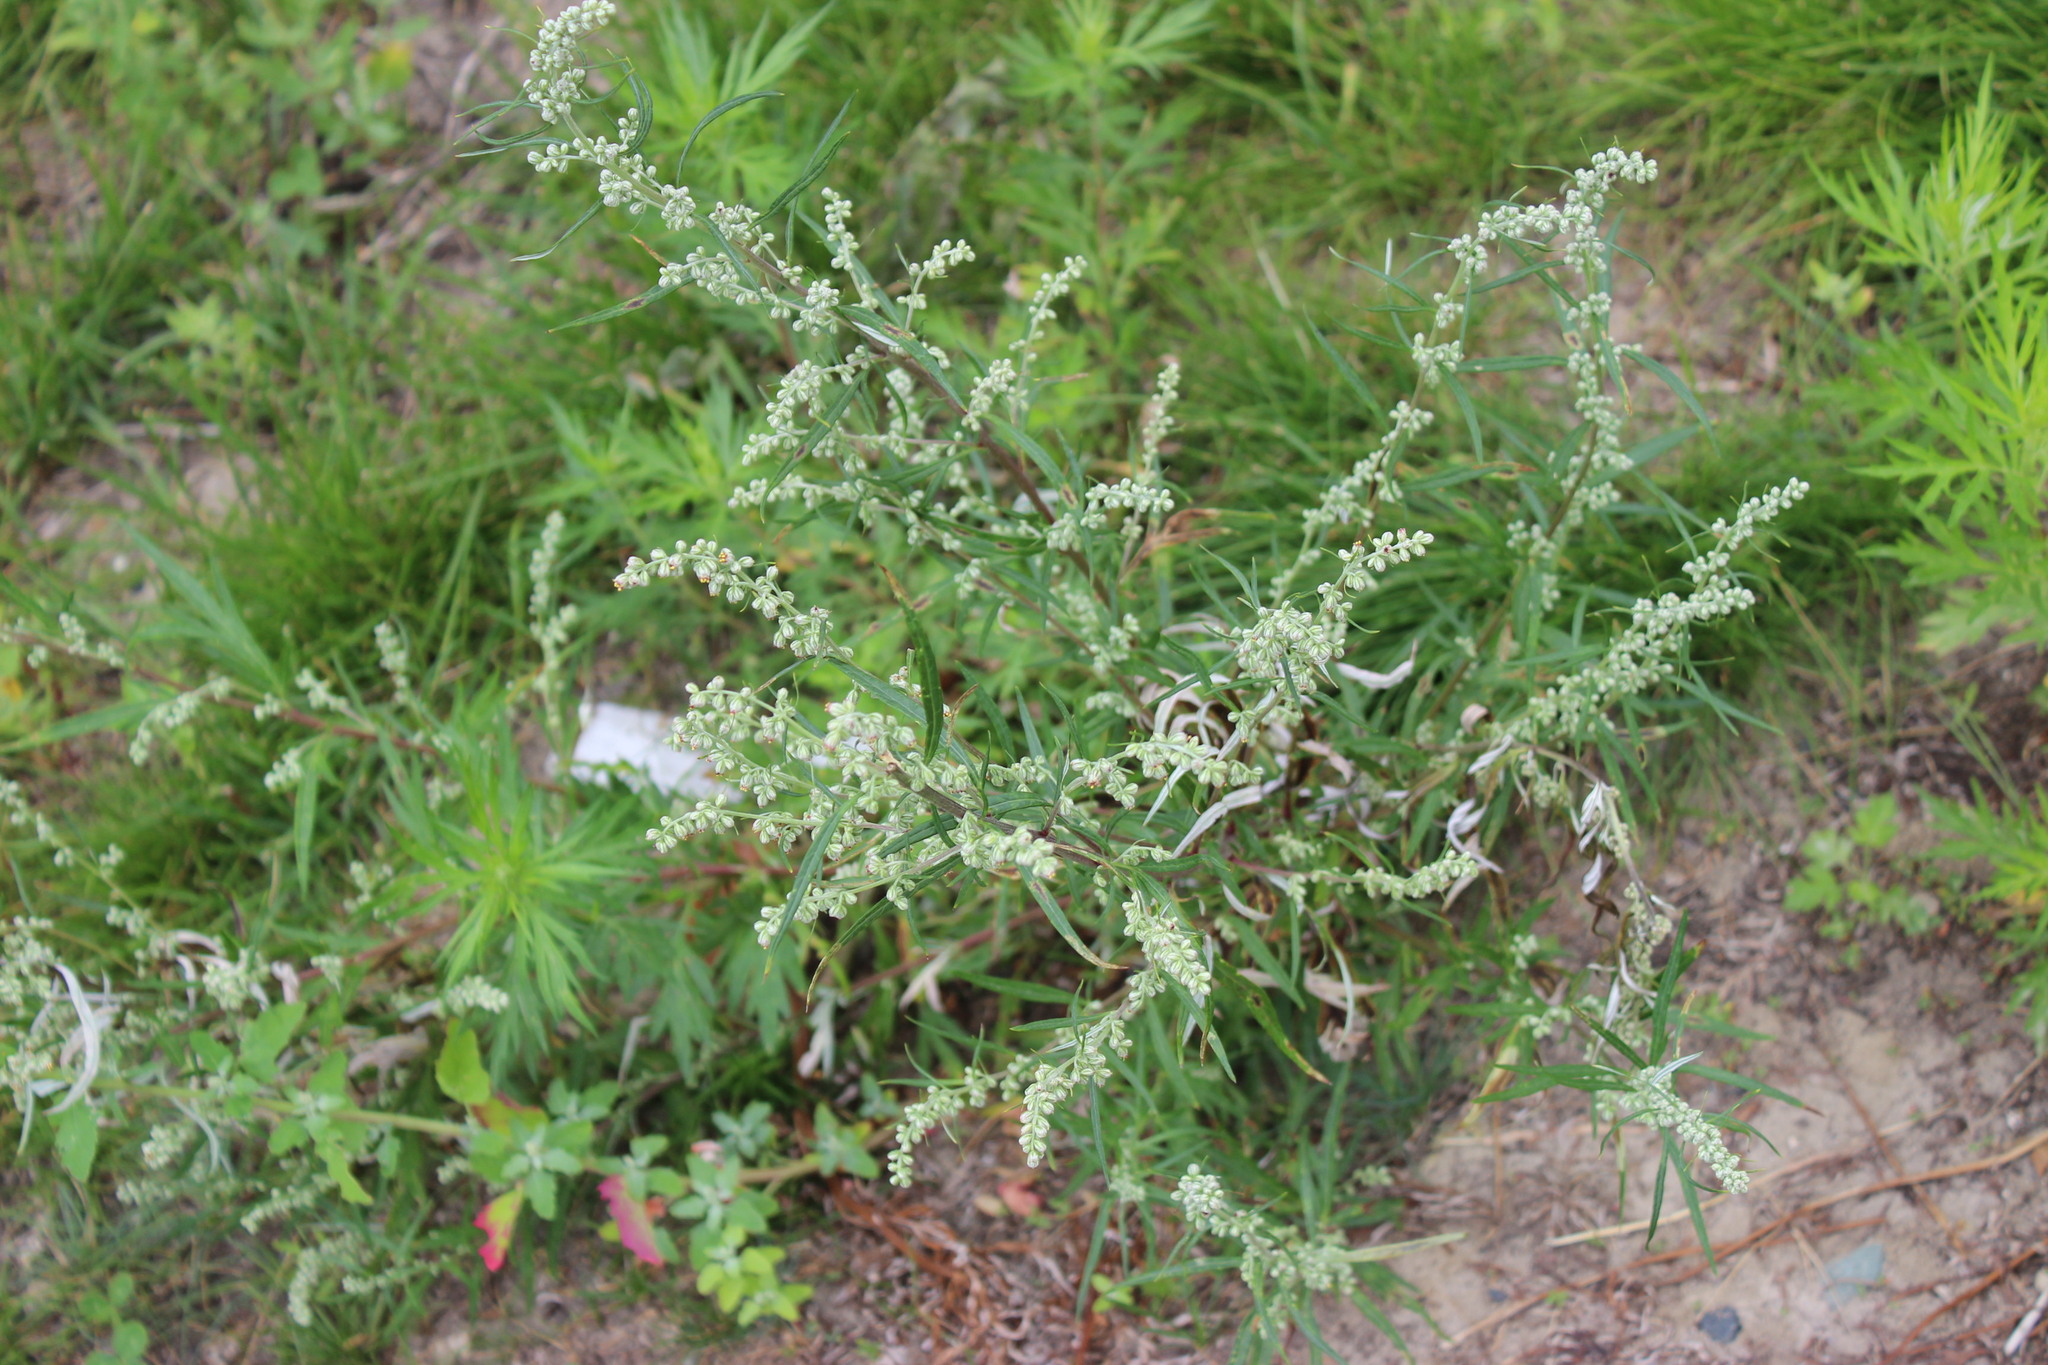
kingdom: Plantae
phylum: Tracheophyta
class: Magnoliopsida
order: Asterales
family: Asteraceae
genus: Artemisia
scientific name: Artemisia vulgaris
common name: Mugwort
